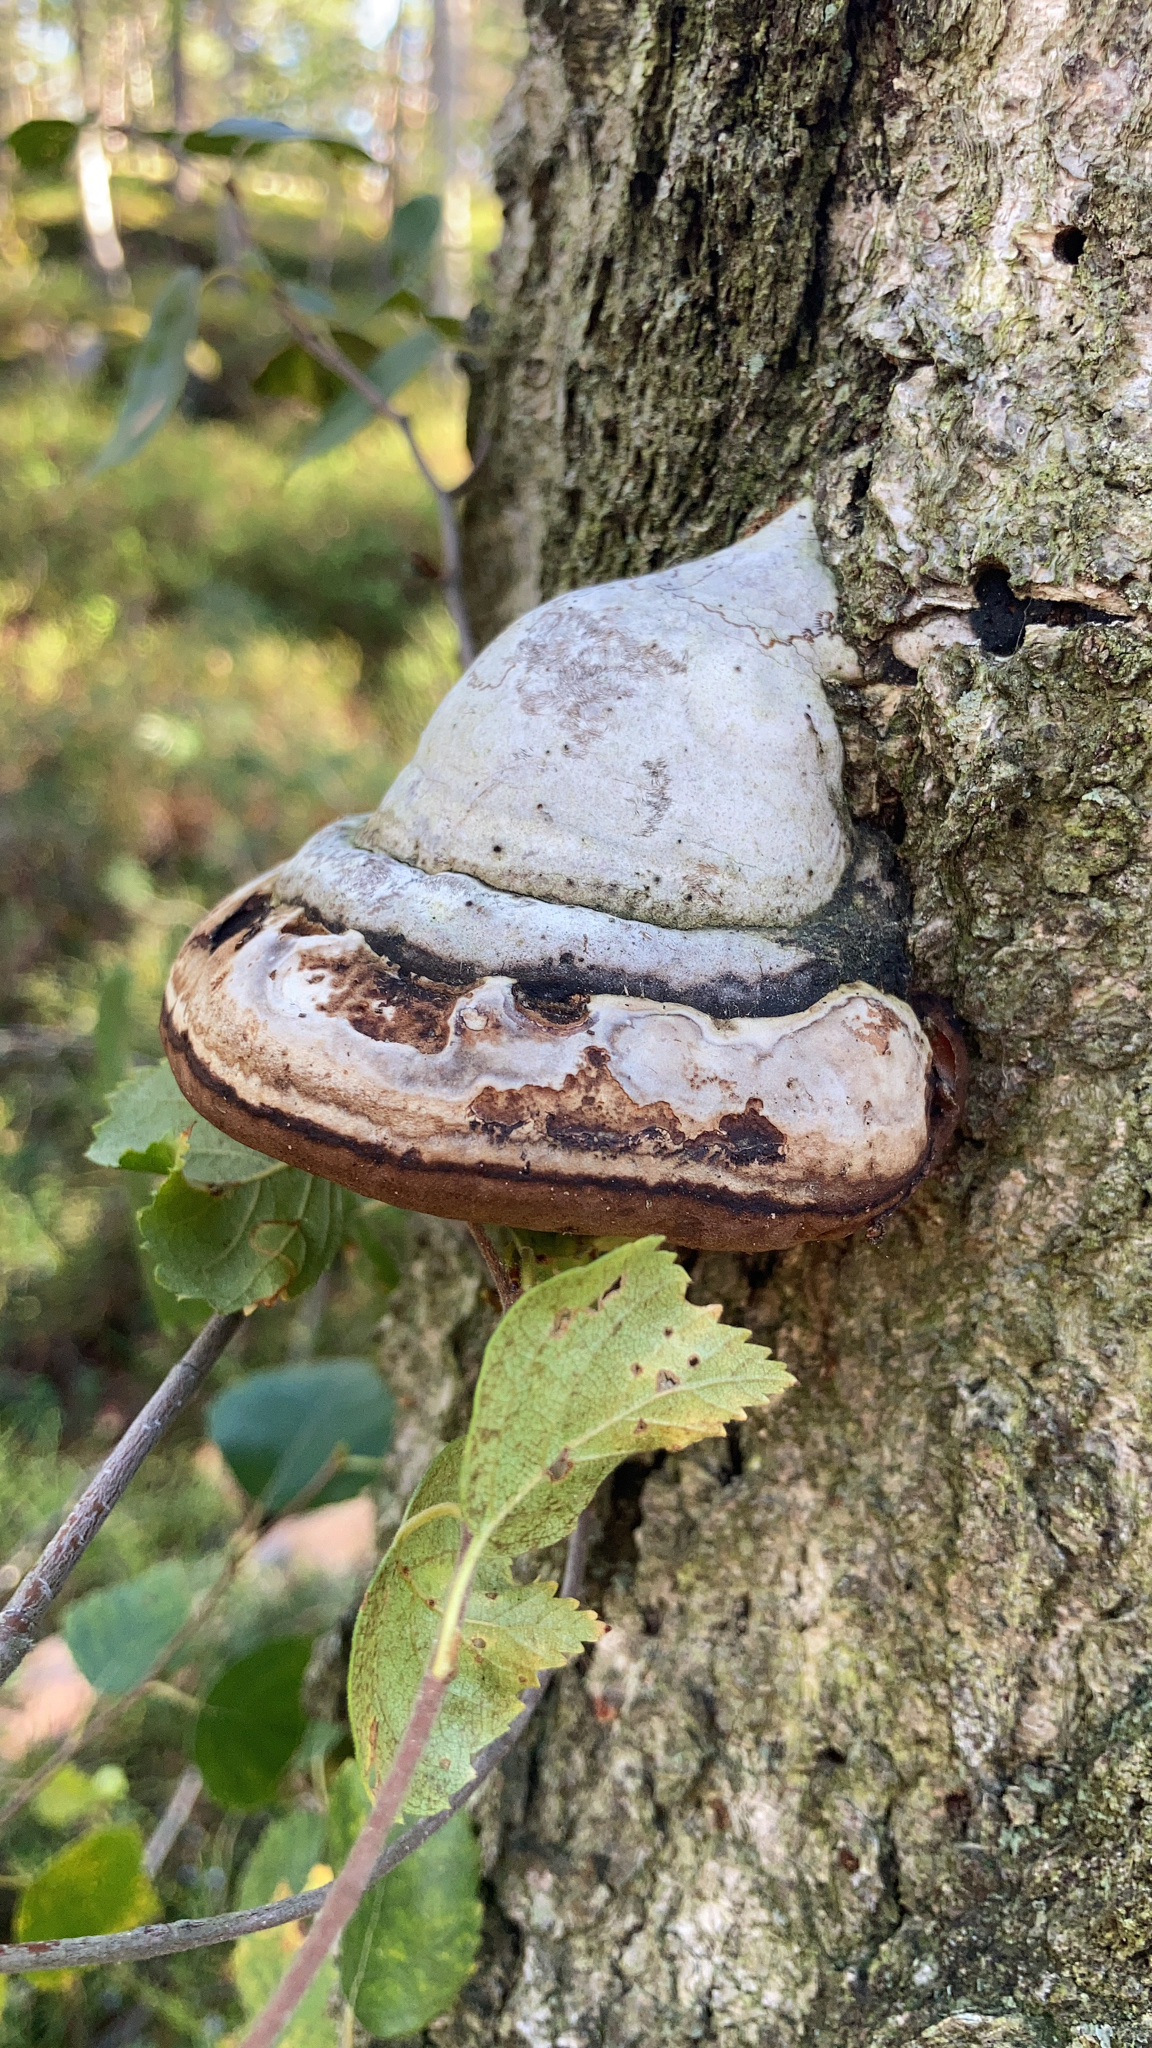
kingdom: Fungi
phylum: Basidiomycota
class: Agaricomycetes
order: Polyporales
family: Polyporaceae
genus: Fomes
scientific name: Fomes fomentarius
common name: Hoof fungus
